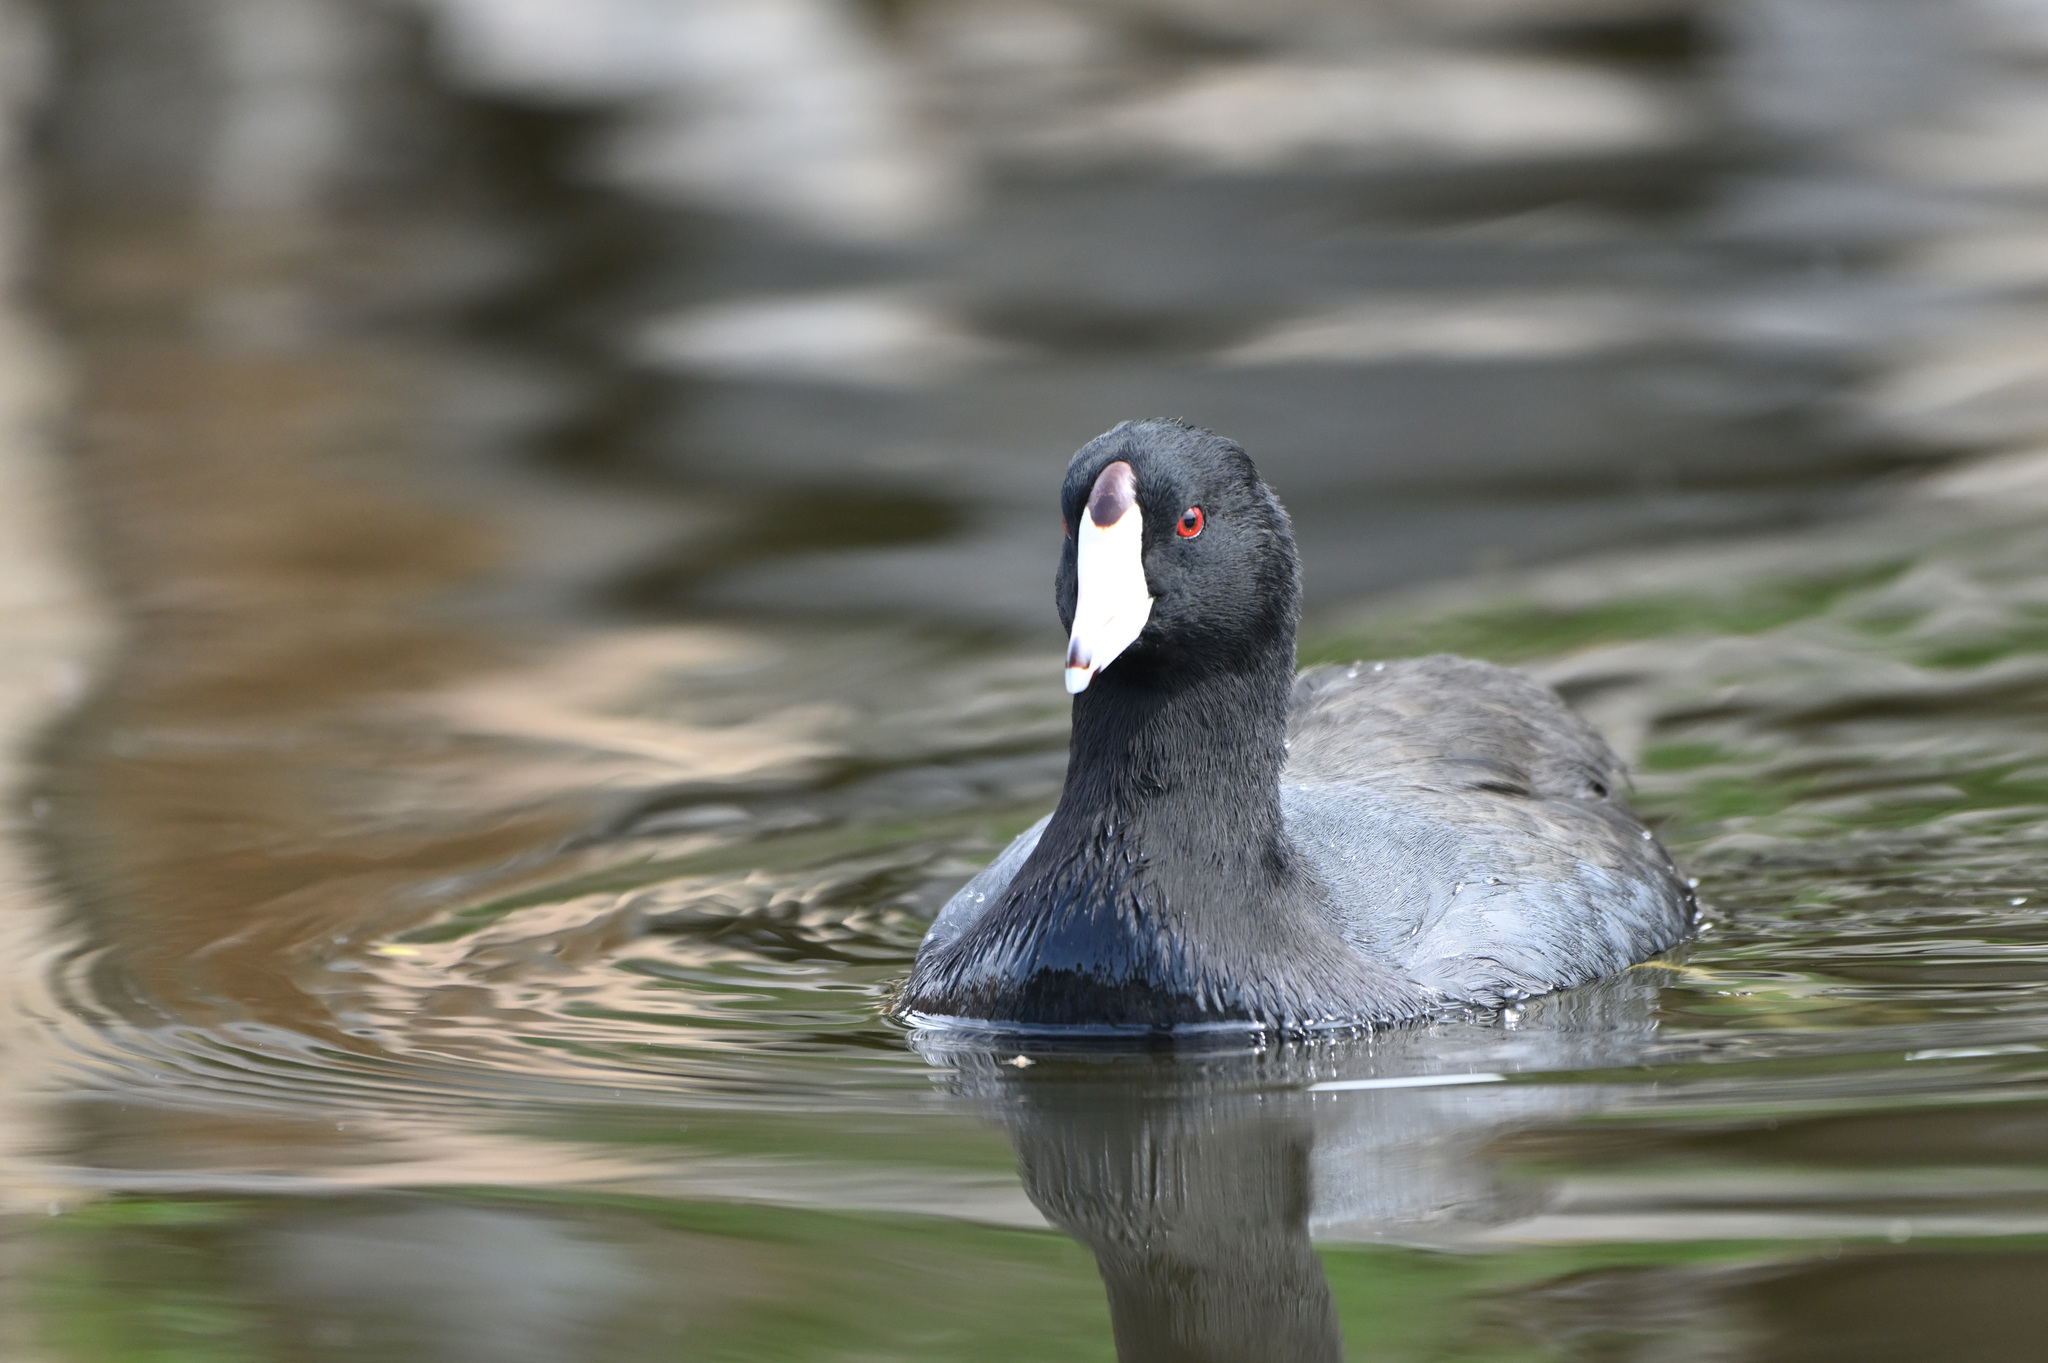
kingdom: Animalia
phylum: Chordata
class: Aves
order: Gruiformes
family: Rallidae
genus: Fulica
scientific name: Fulica americana
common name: American coot
